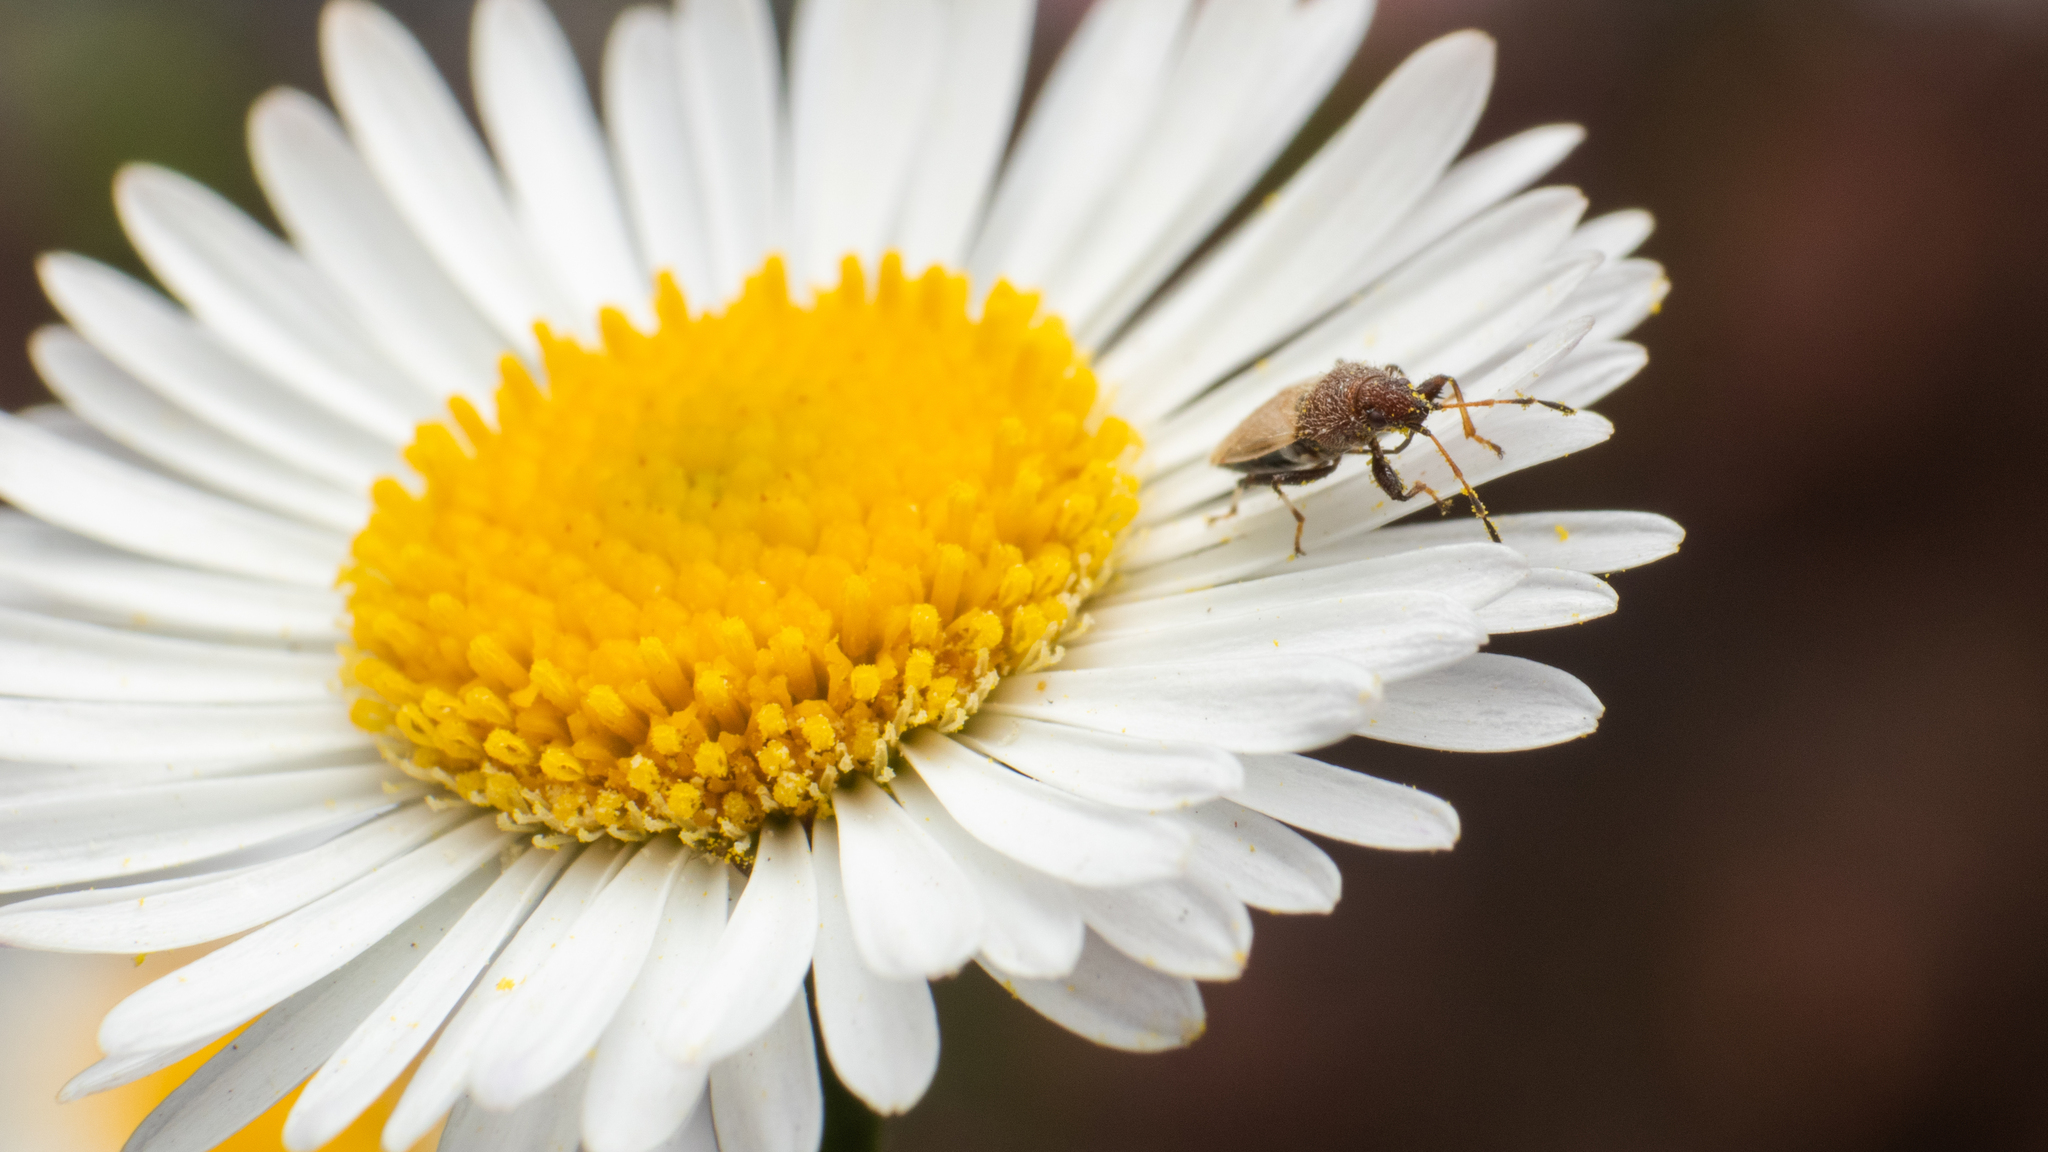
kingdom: Animalia
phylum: Arthropoda
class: Insecta
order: Hemiptera
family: Oxycarenidae
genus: Oxycarenus
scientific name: Oxycarenus hyalinipennis
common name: Cotton seed bug
